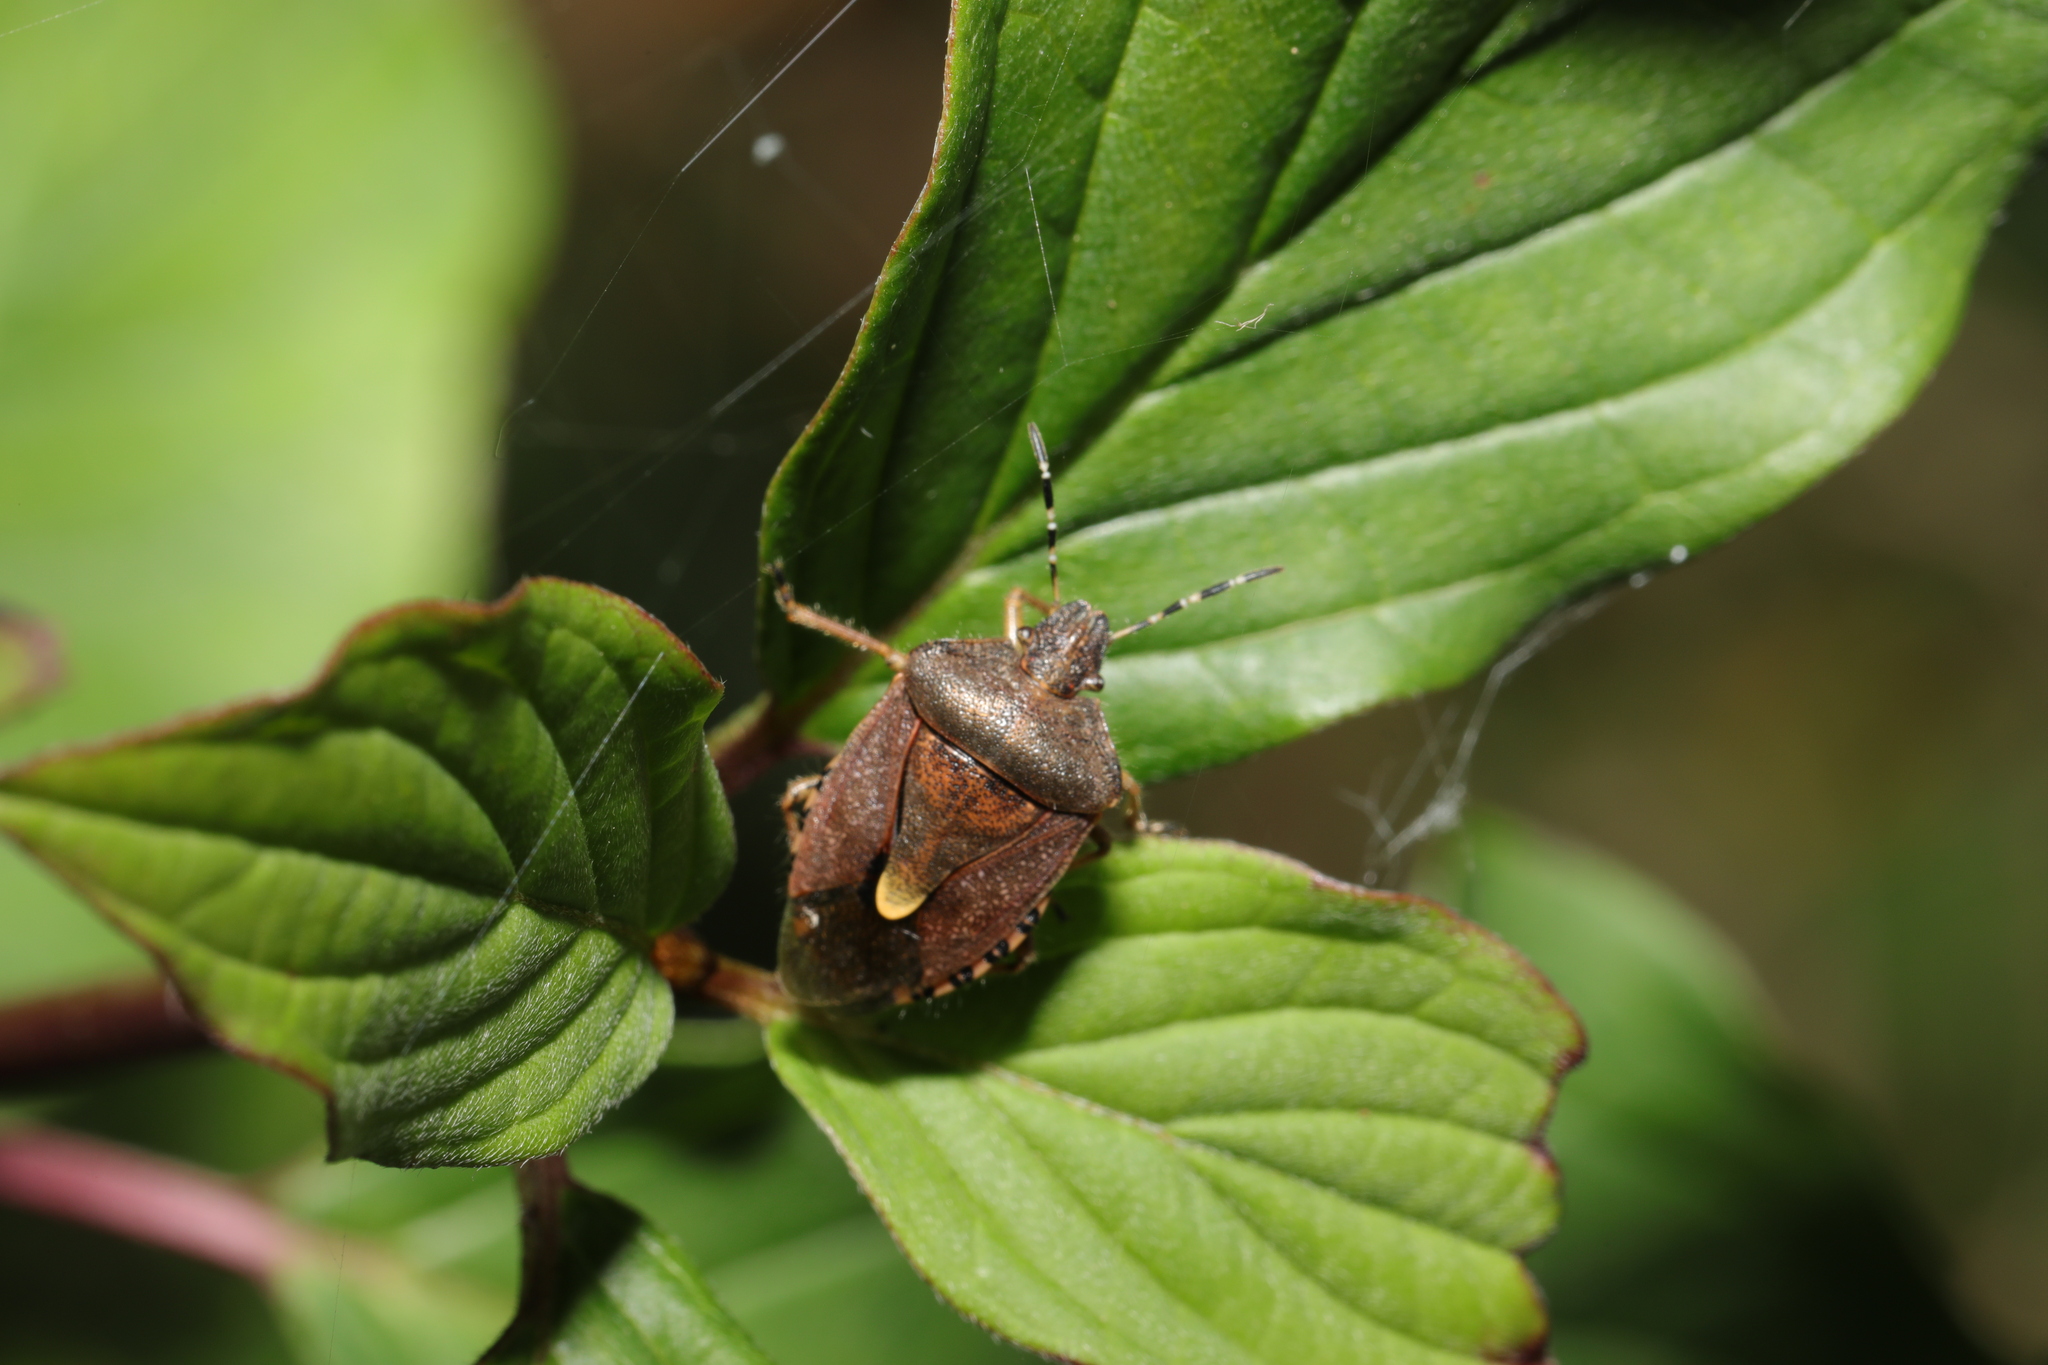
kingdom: Animalia
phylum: Arthropoda
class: Insecta
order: Hemiptera
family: Pentatomidae
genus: Dolycoris
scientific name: Dolycoris baccarum
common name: Sloe bug
